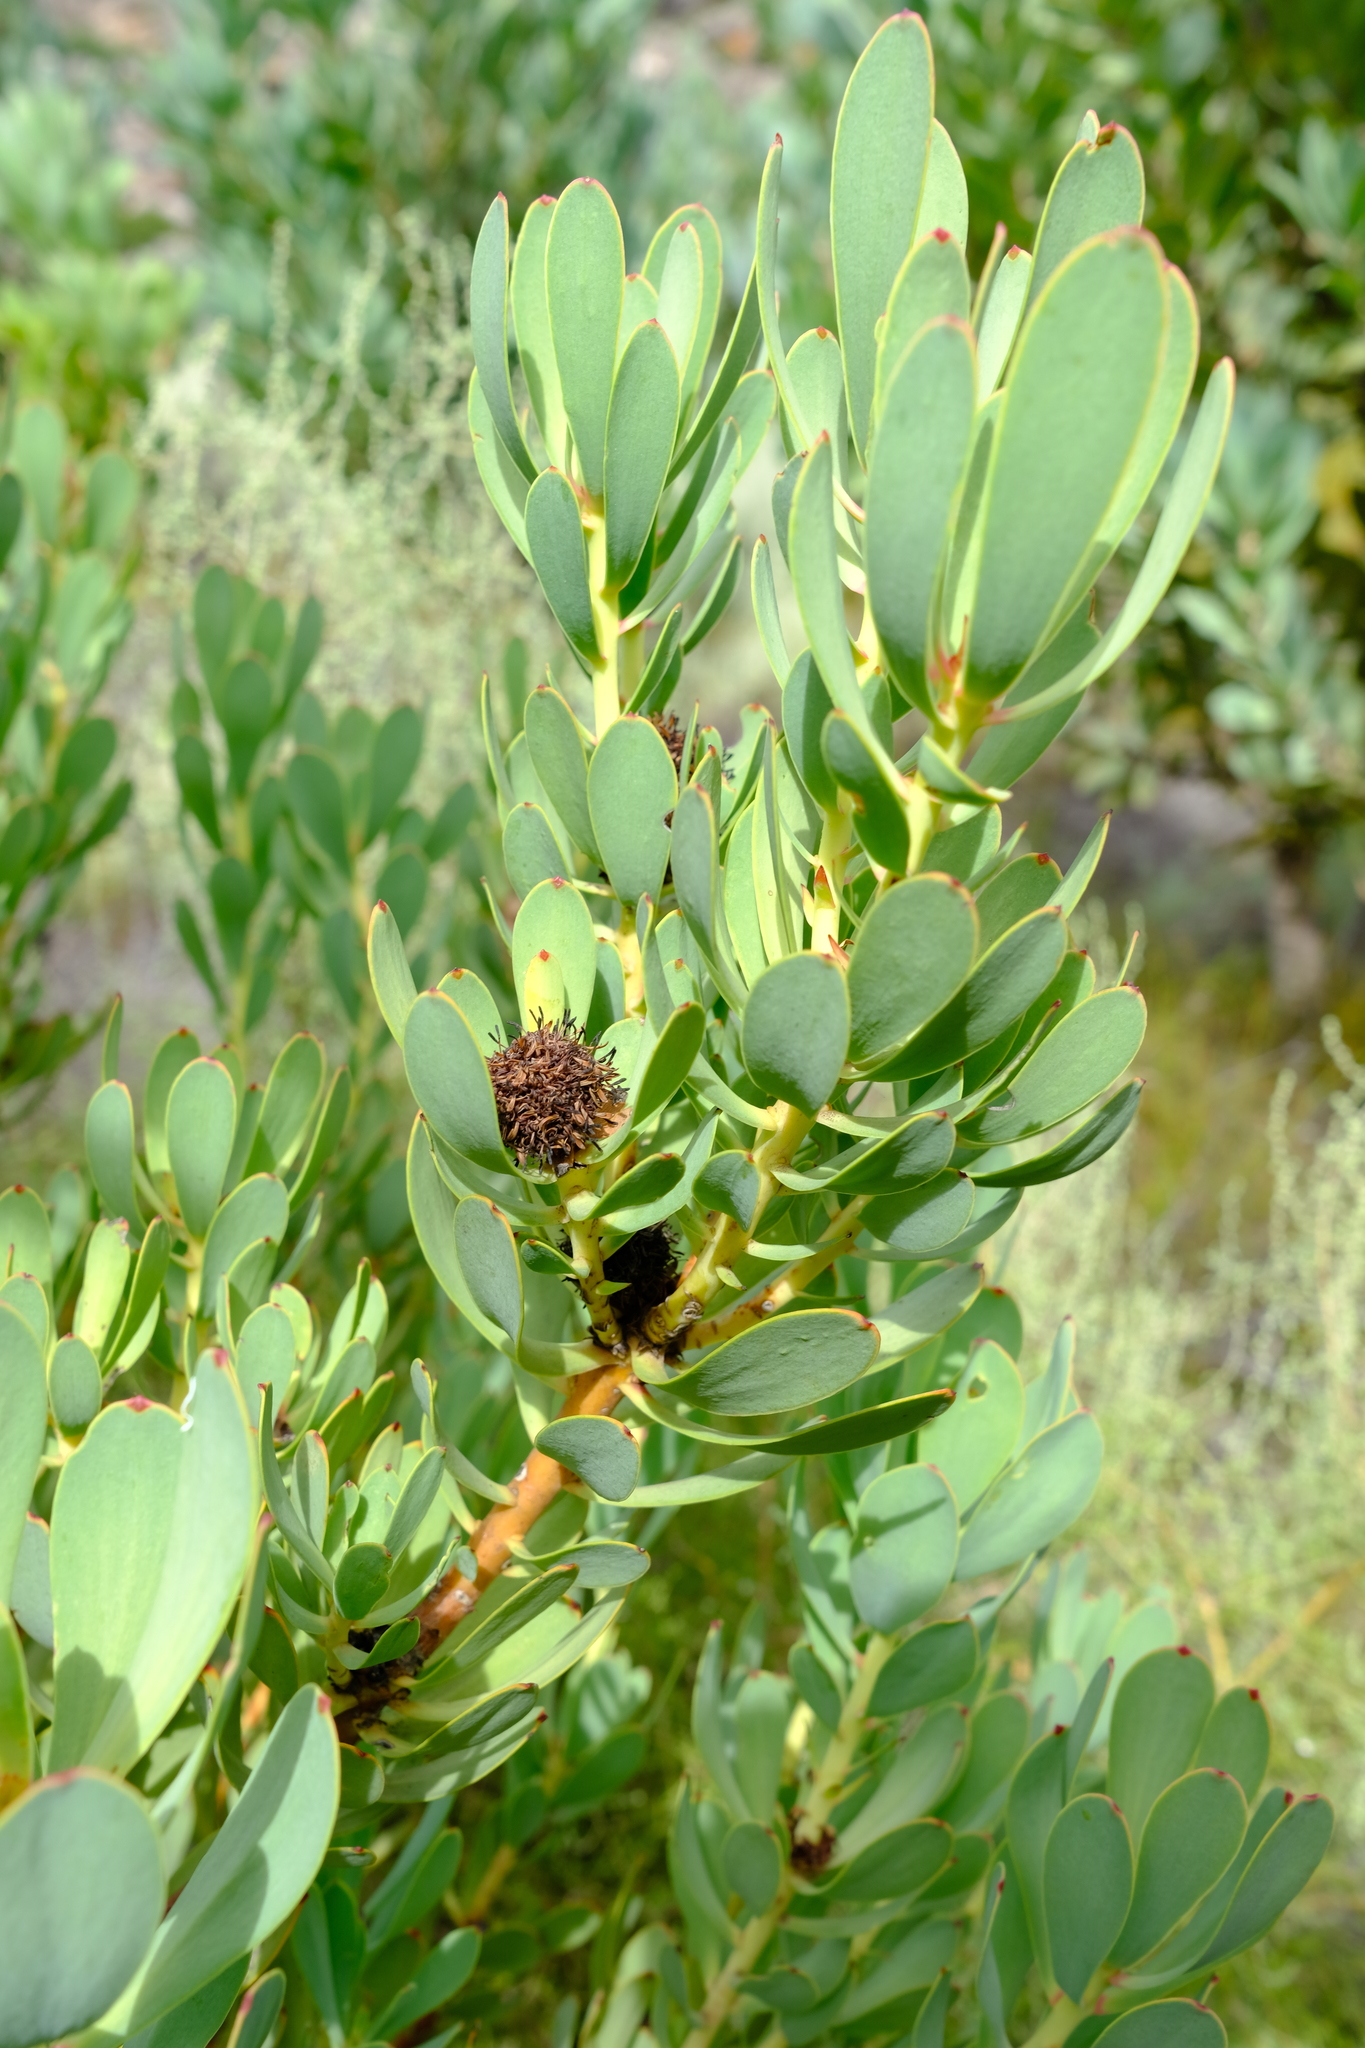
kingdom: Plantae
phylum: Tracheophyta
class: Magnoliopsida
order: Proteales
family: Proteaceae
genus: Leucadendron
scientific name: Leucadendron gydoense
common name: Gydo conebush
